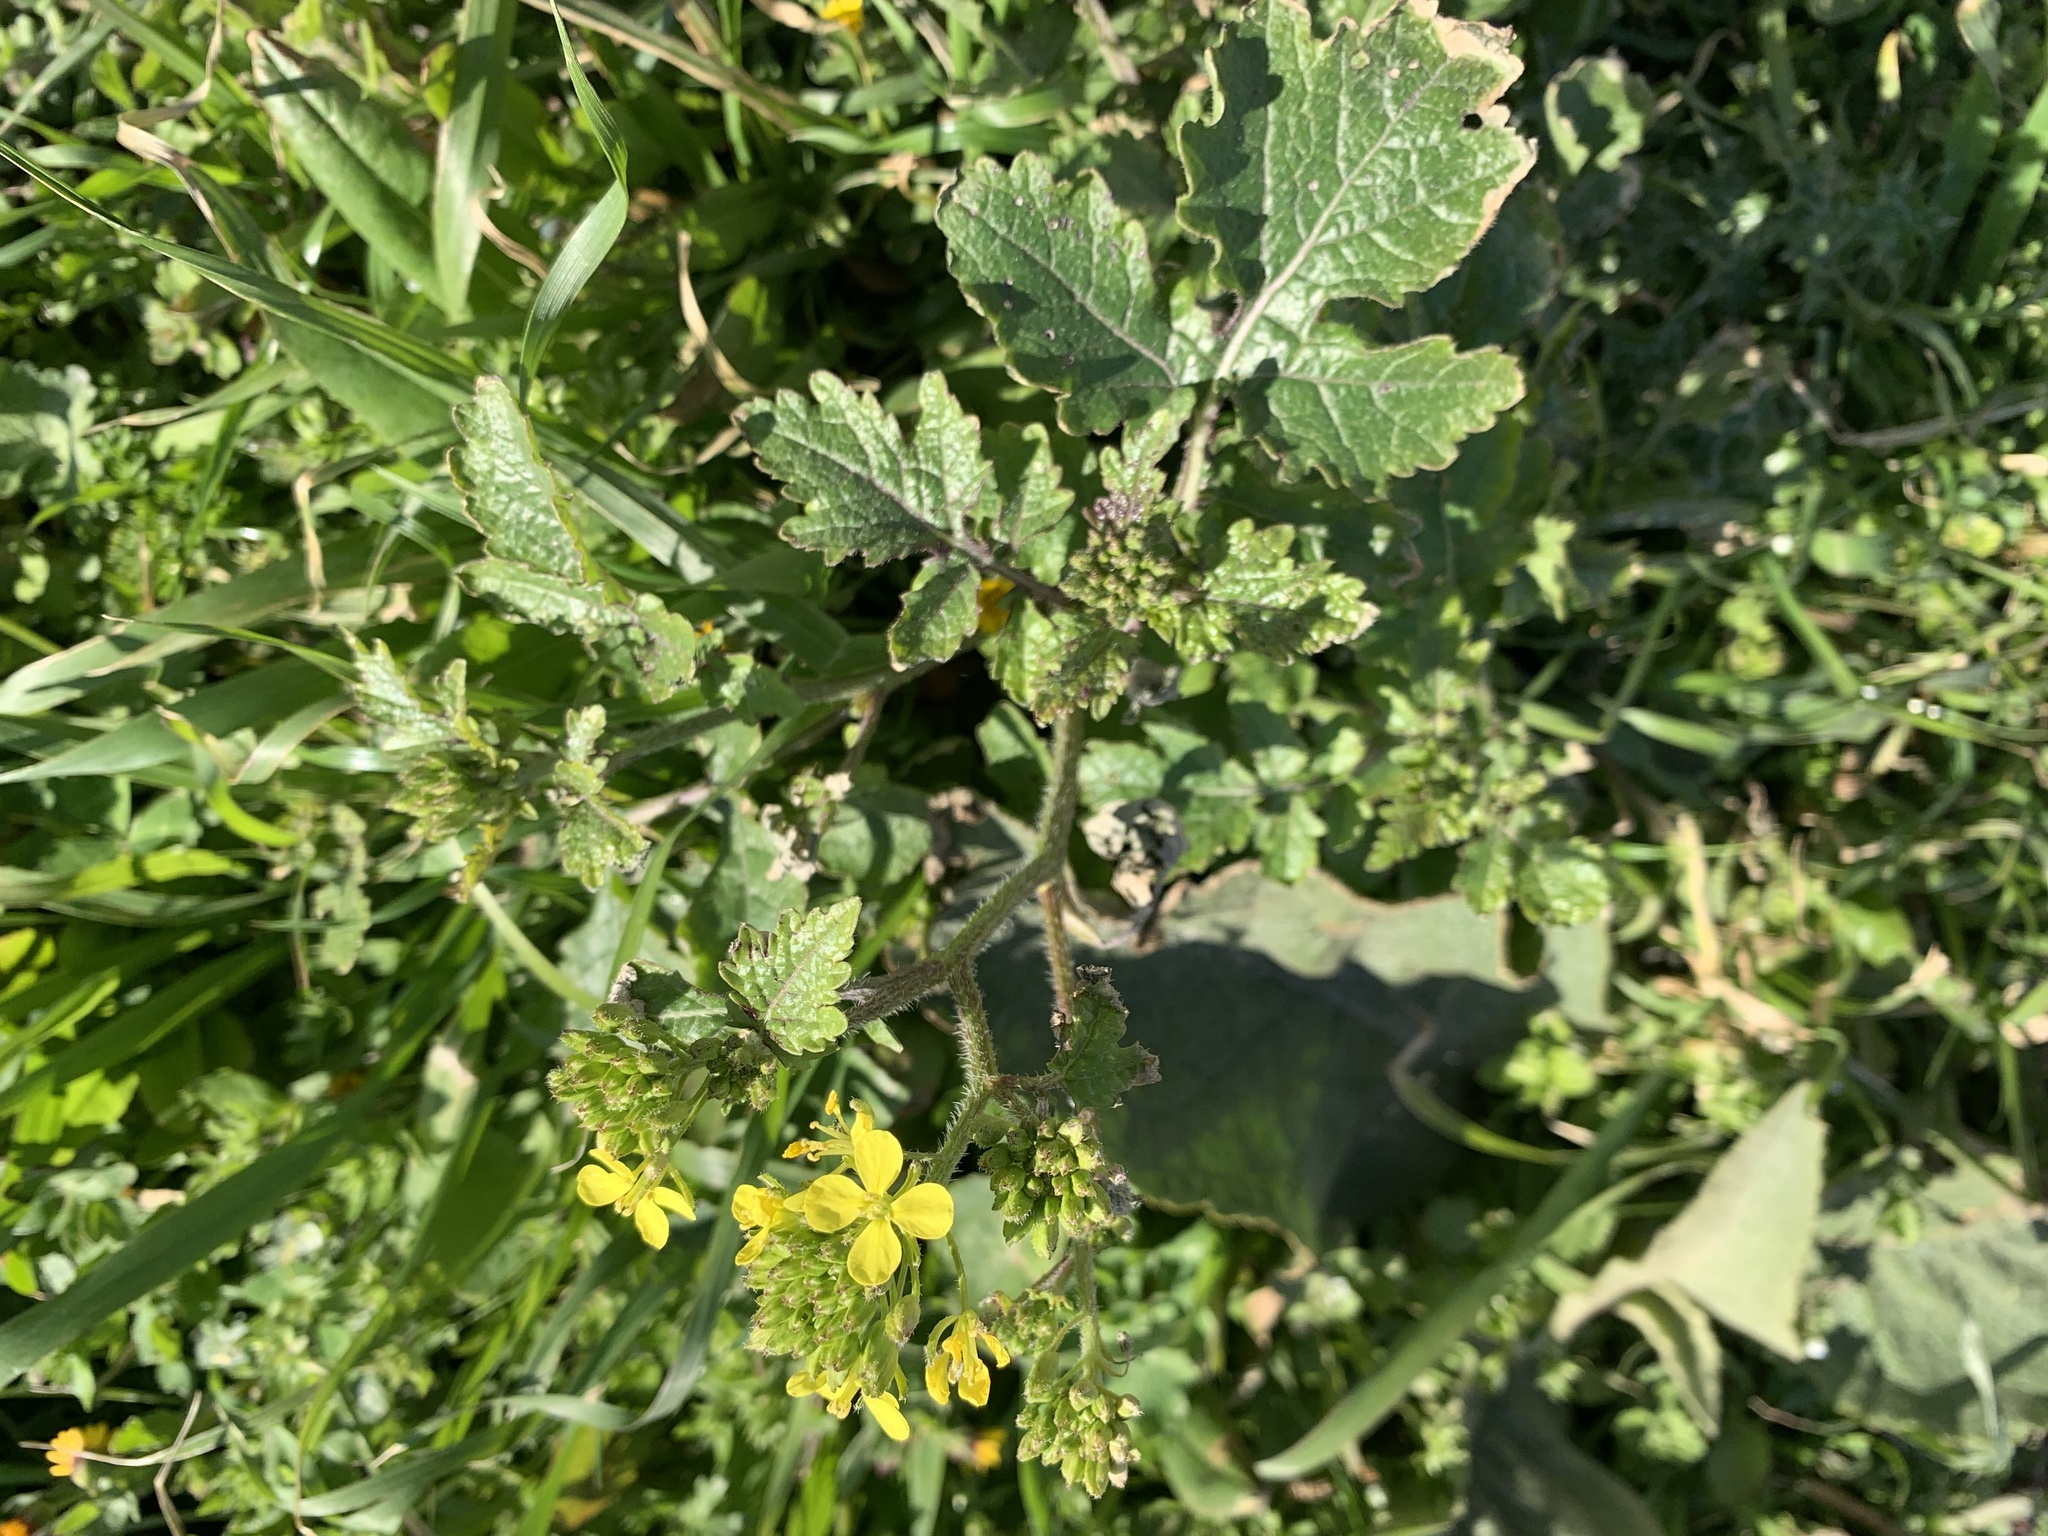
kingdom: Plantae
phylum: Tracheophyta
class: Magnoliopsida
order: Brassicales
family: Brassicaceae
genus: Sinapis
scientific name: Sinapis alba
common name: White mustard
